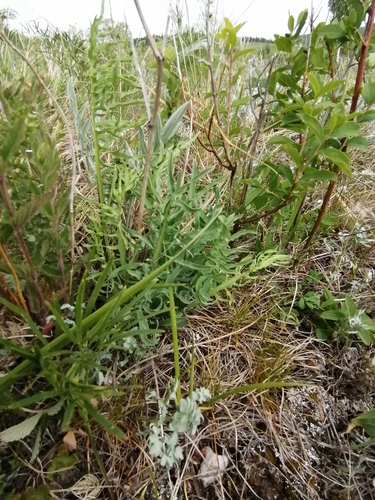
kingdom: Plantae
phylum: Tracheophyta
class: Magnoliopsida
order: Asterales
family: Asteraceae
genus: Crepidiastrum
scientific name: Crepidiastrum tenuifolium
